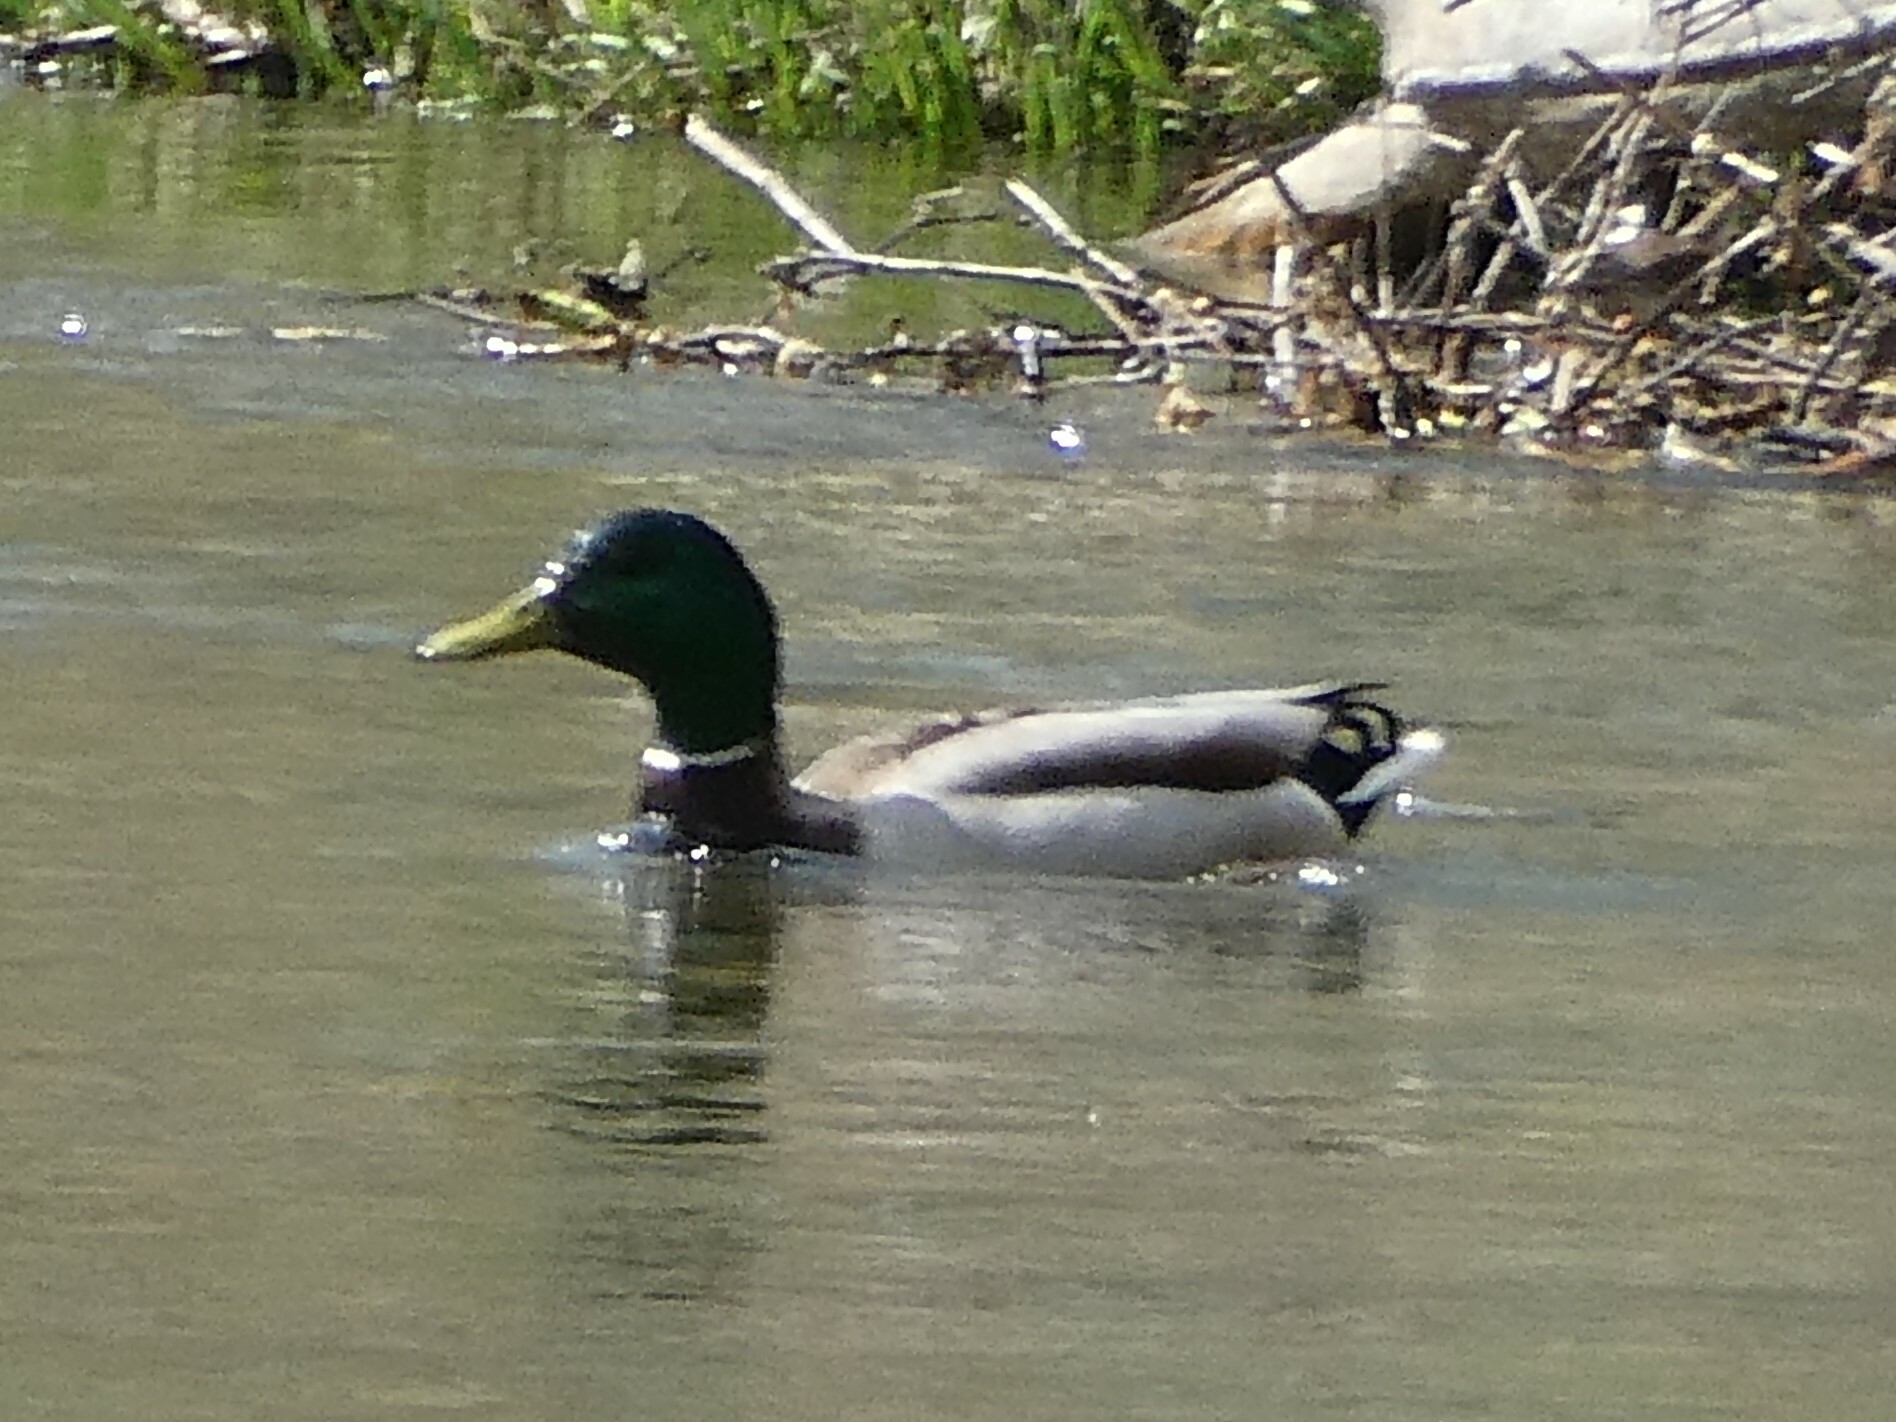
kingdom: Animalia
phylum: Chordata
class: Aves
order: Anseriformes
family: Anatidae
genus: Anas
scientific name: Anas platyrhynchos
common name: Mallard
